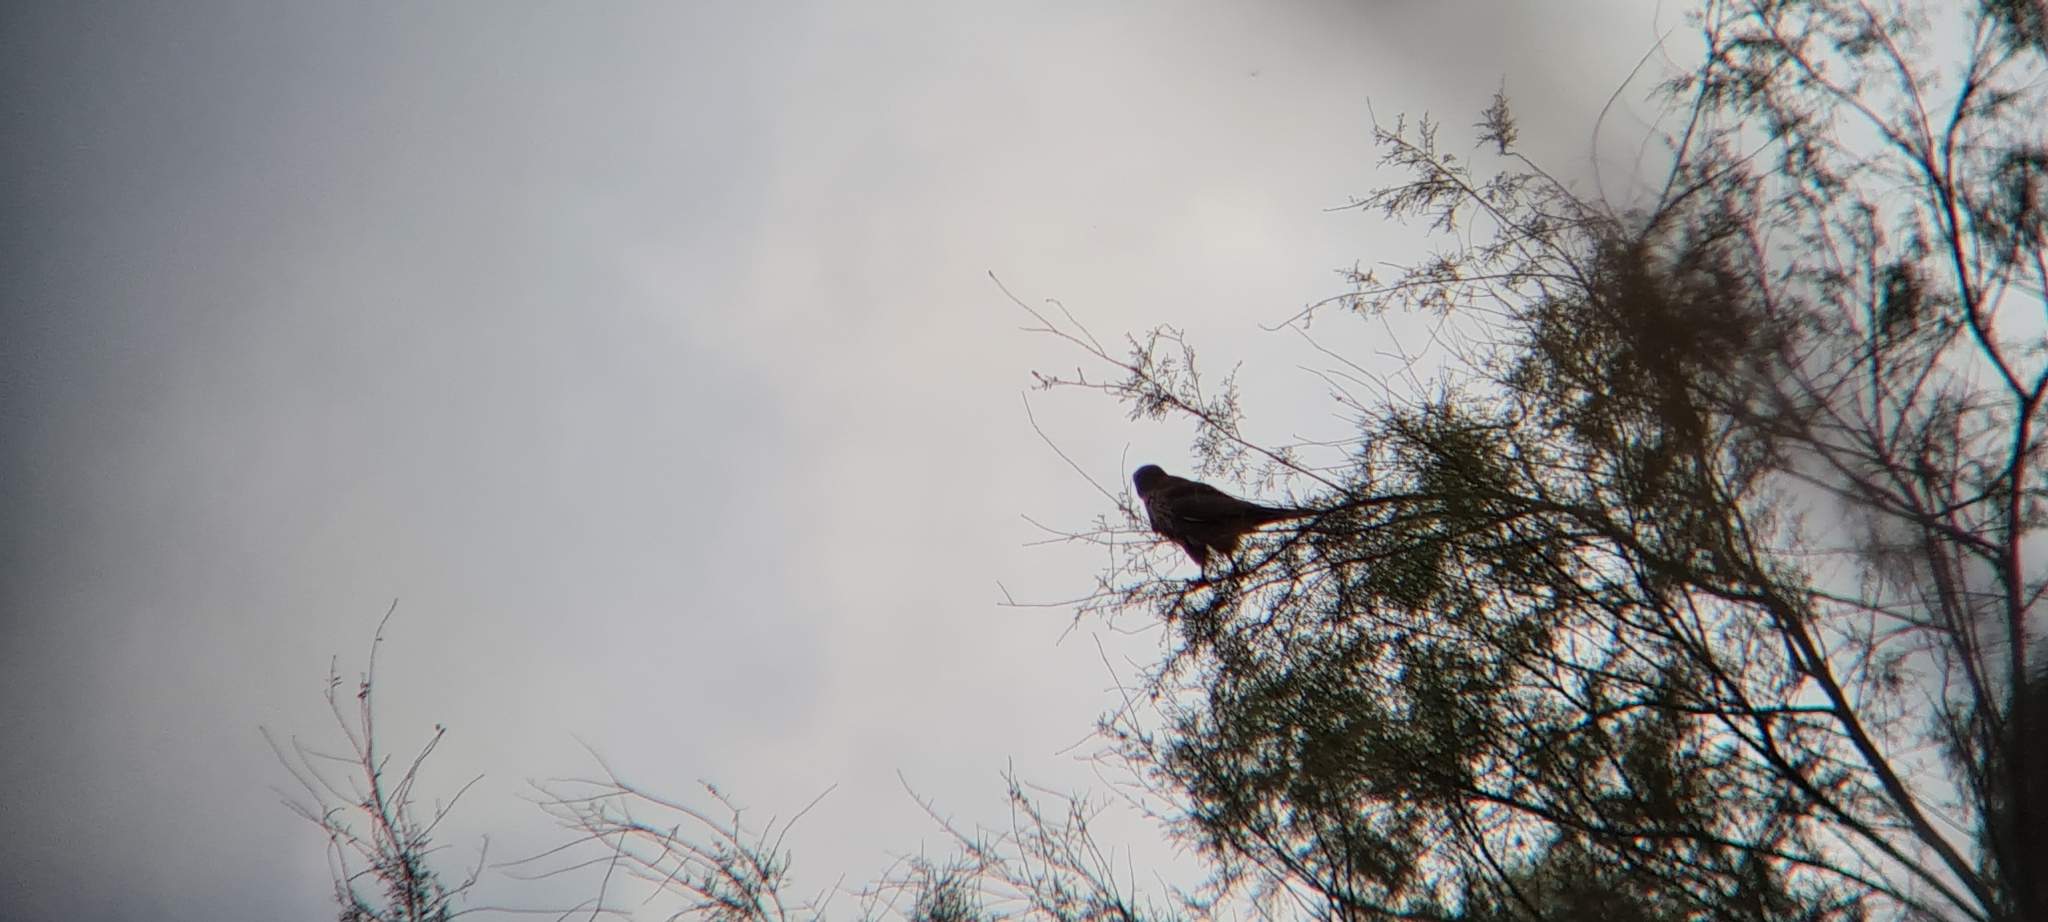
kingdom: Animalia
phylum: Chordata
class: Aves
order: Accipitriformes
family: Accipitridae
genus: Buteo
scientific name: Buteo buteo
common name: Common buzzard
